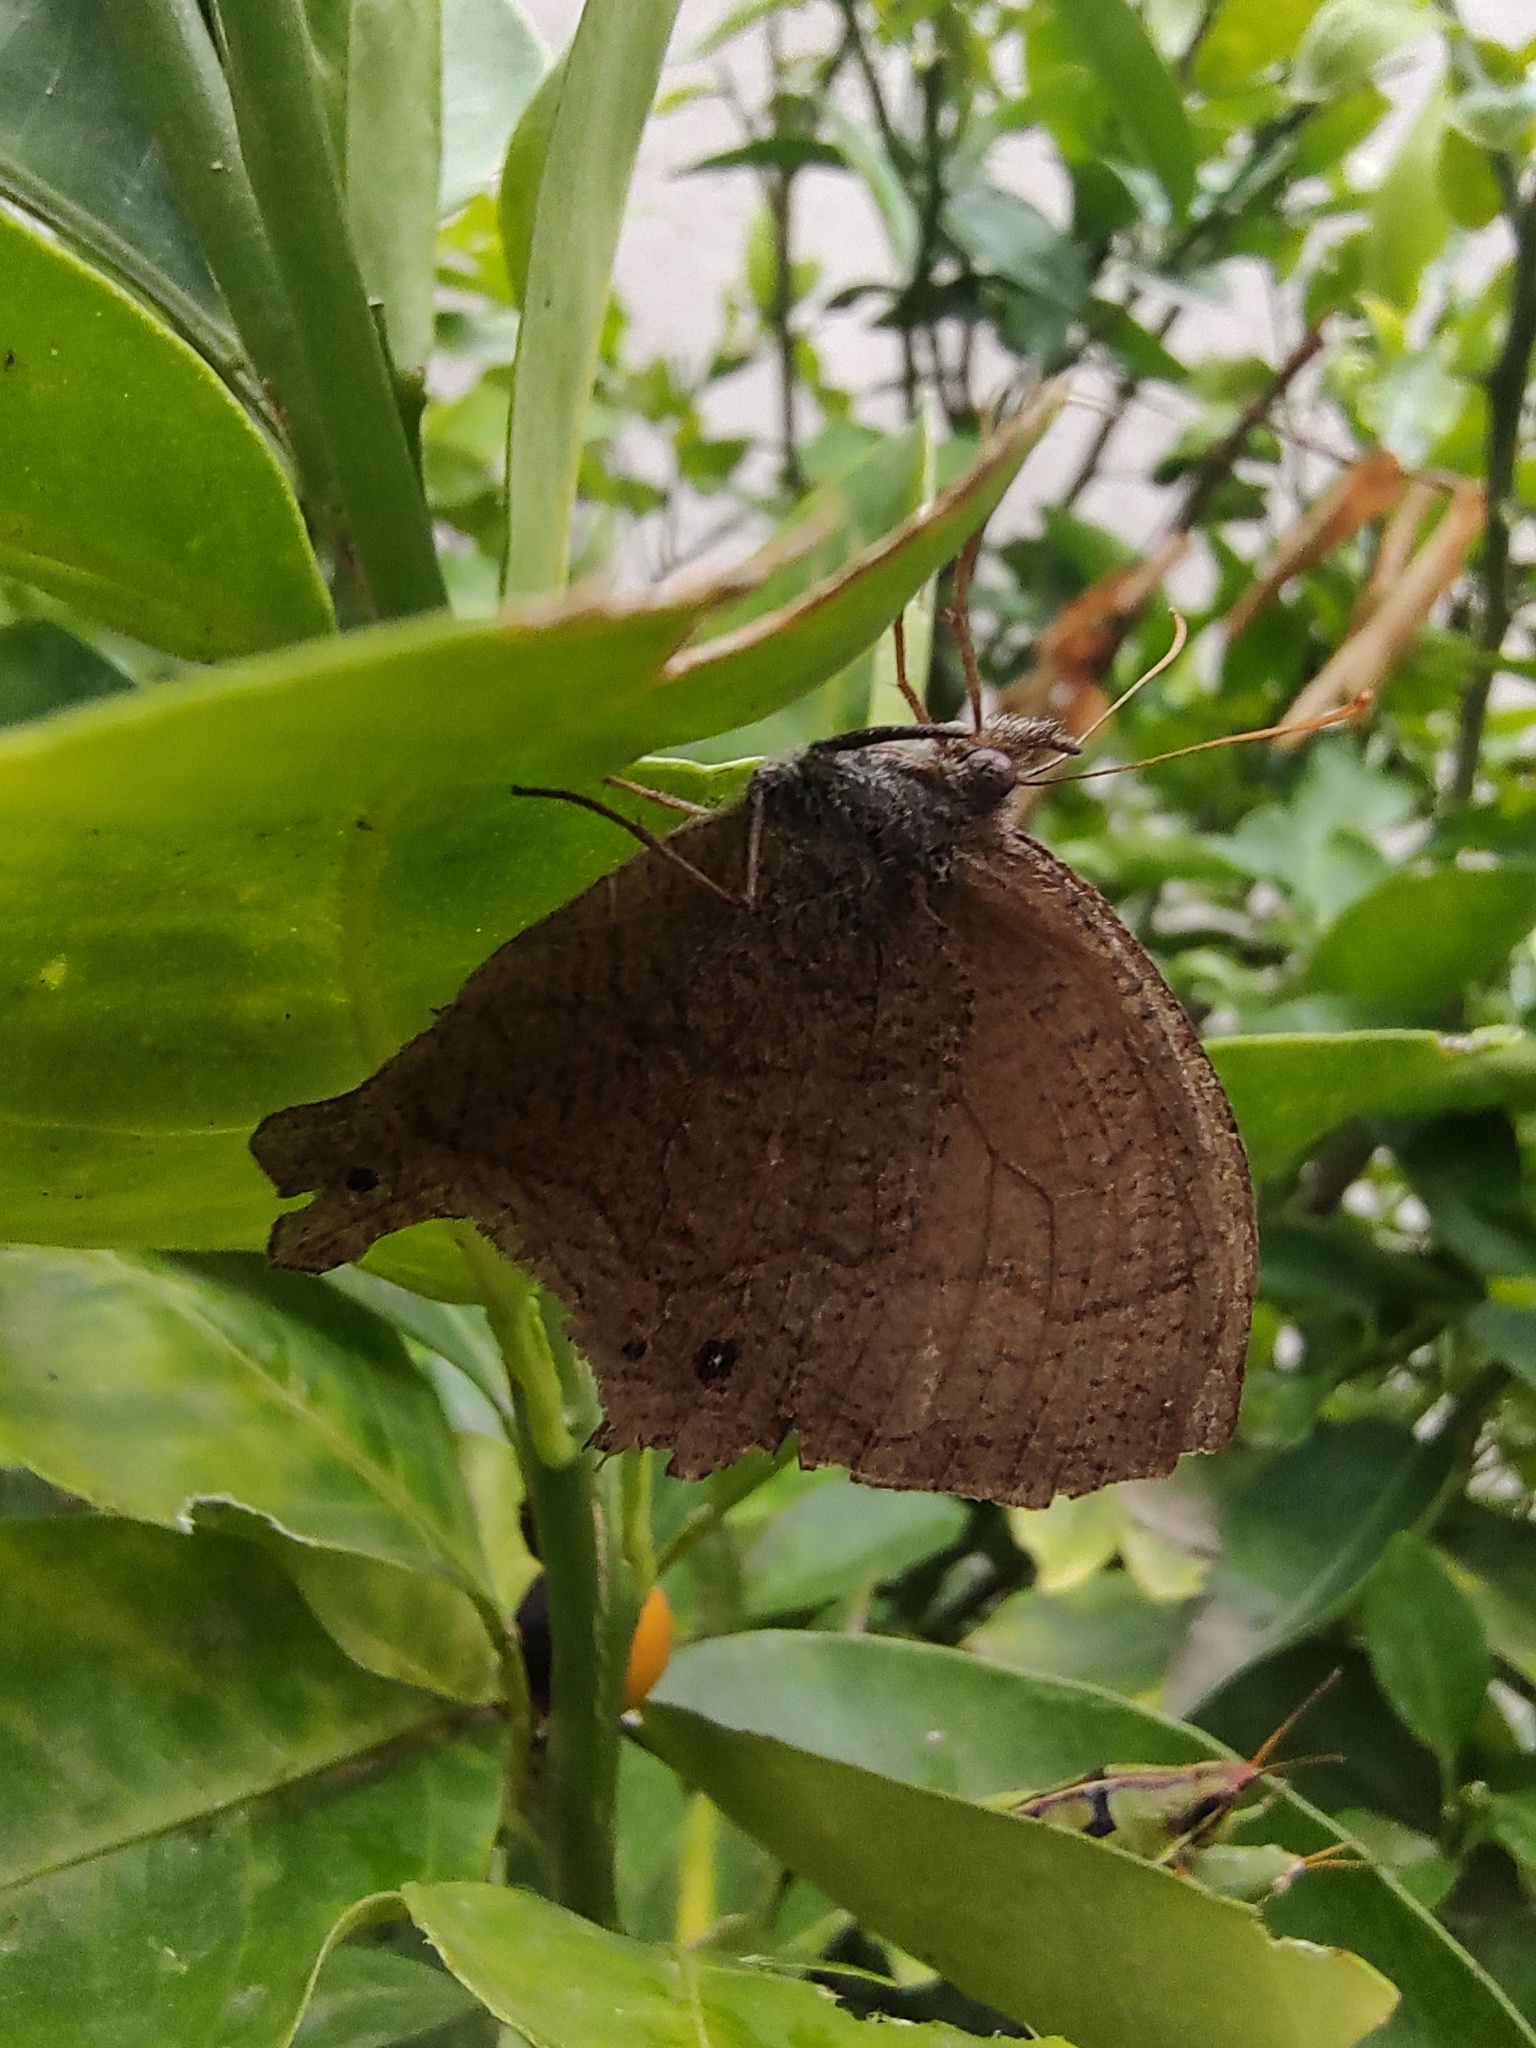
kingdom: Animalia
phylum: Arthropoda
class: Insecta
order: Lepidoptera
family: Nymphalidae
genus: Pindis
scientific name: Pindis squamistriga
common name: Variable satyr
